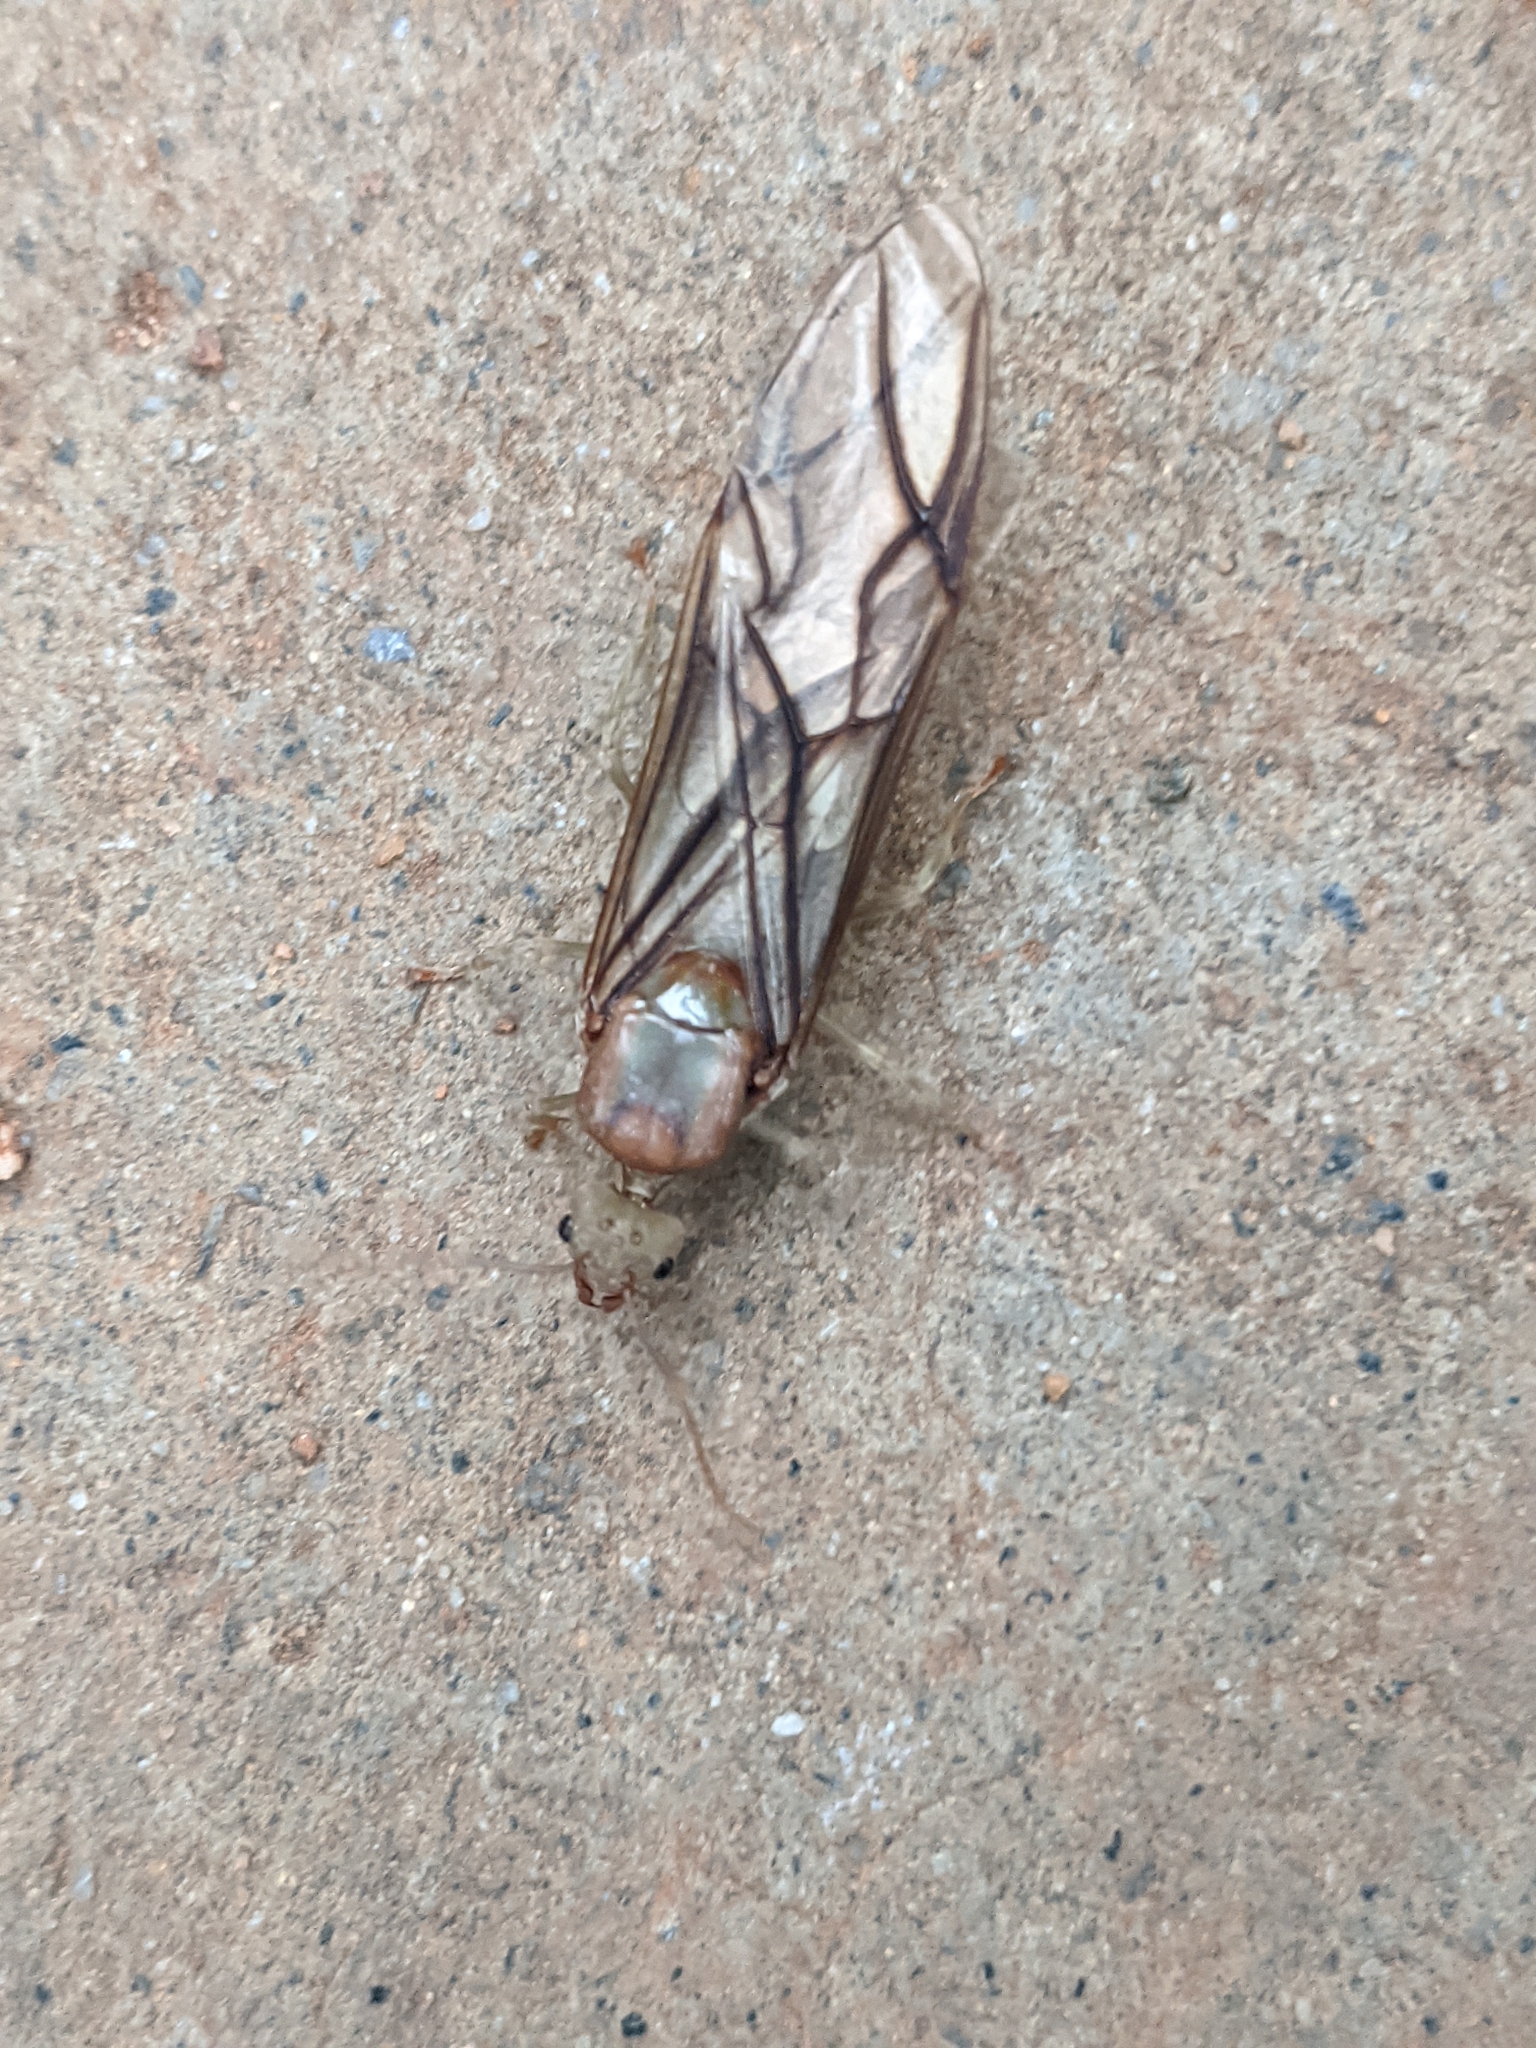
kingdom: Animalia
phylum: Arthropoda
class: Insecta
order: Hymenoptera
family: Formicidae
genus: Oecophylla
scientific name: Oecophylla smaragdina
